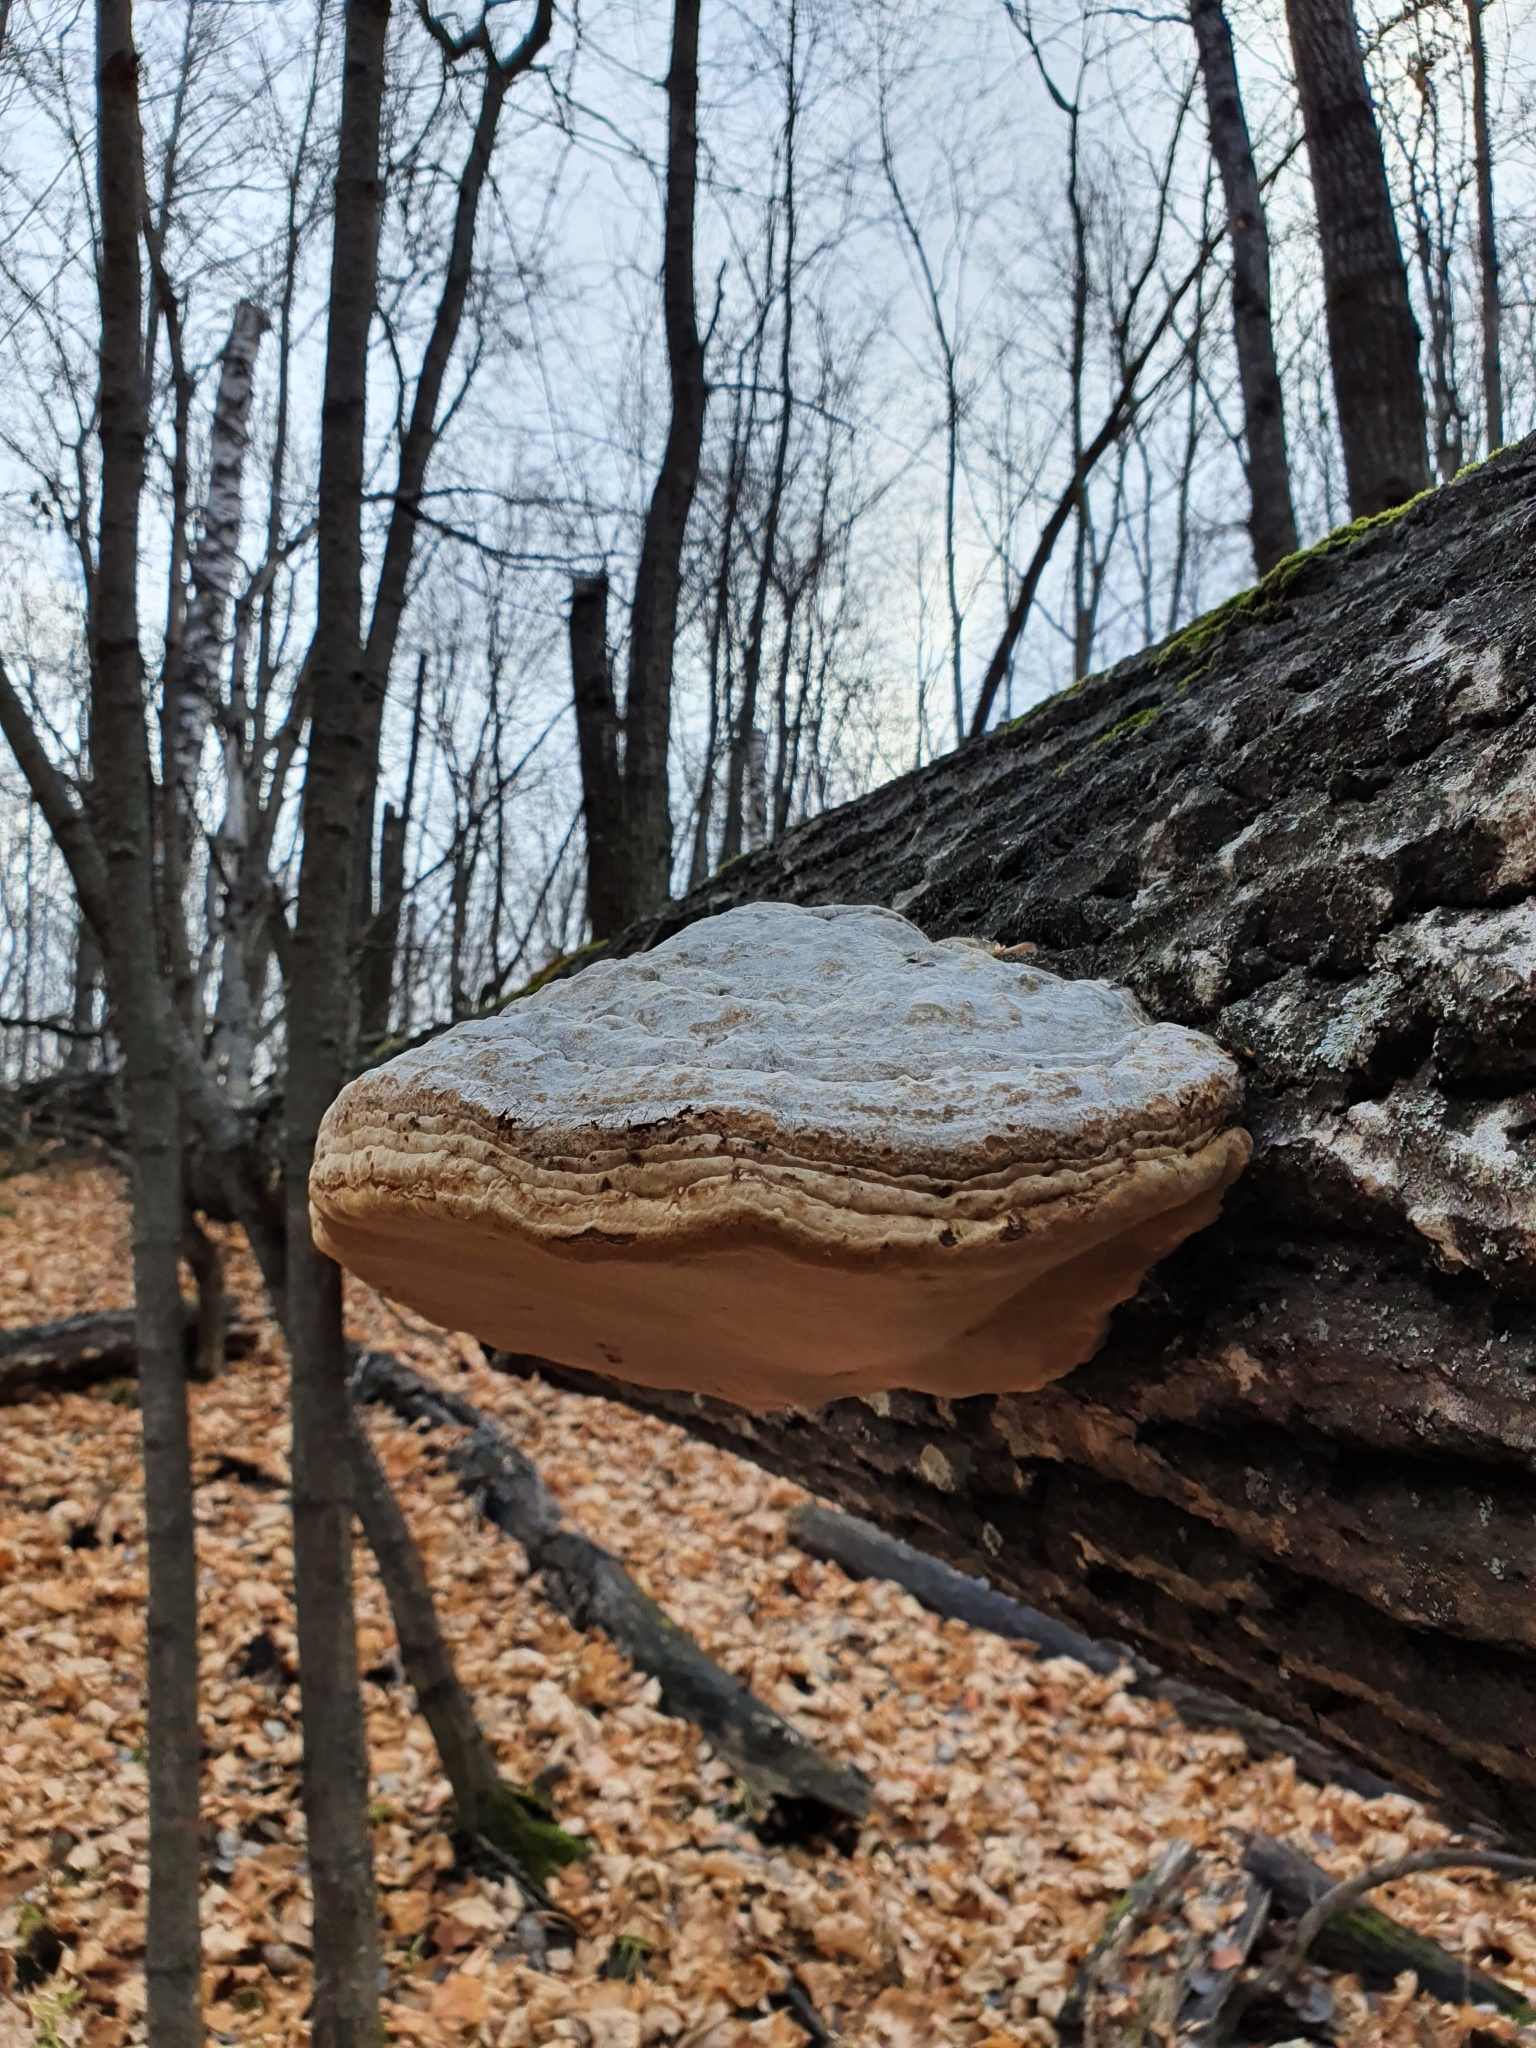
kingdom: Fungi
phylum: Basidiomycota
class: Agaricomycetes
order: Polyporales
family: Polyporaceae
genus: Fomes
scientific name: Fomes fomentarius
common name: Hoof fungus
